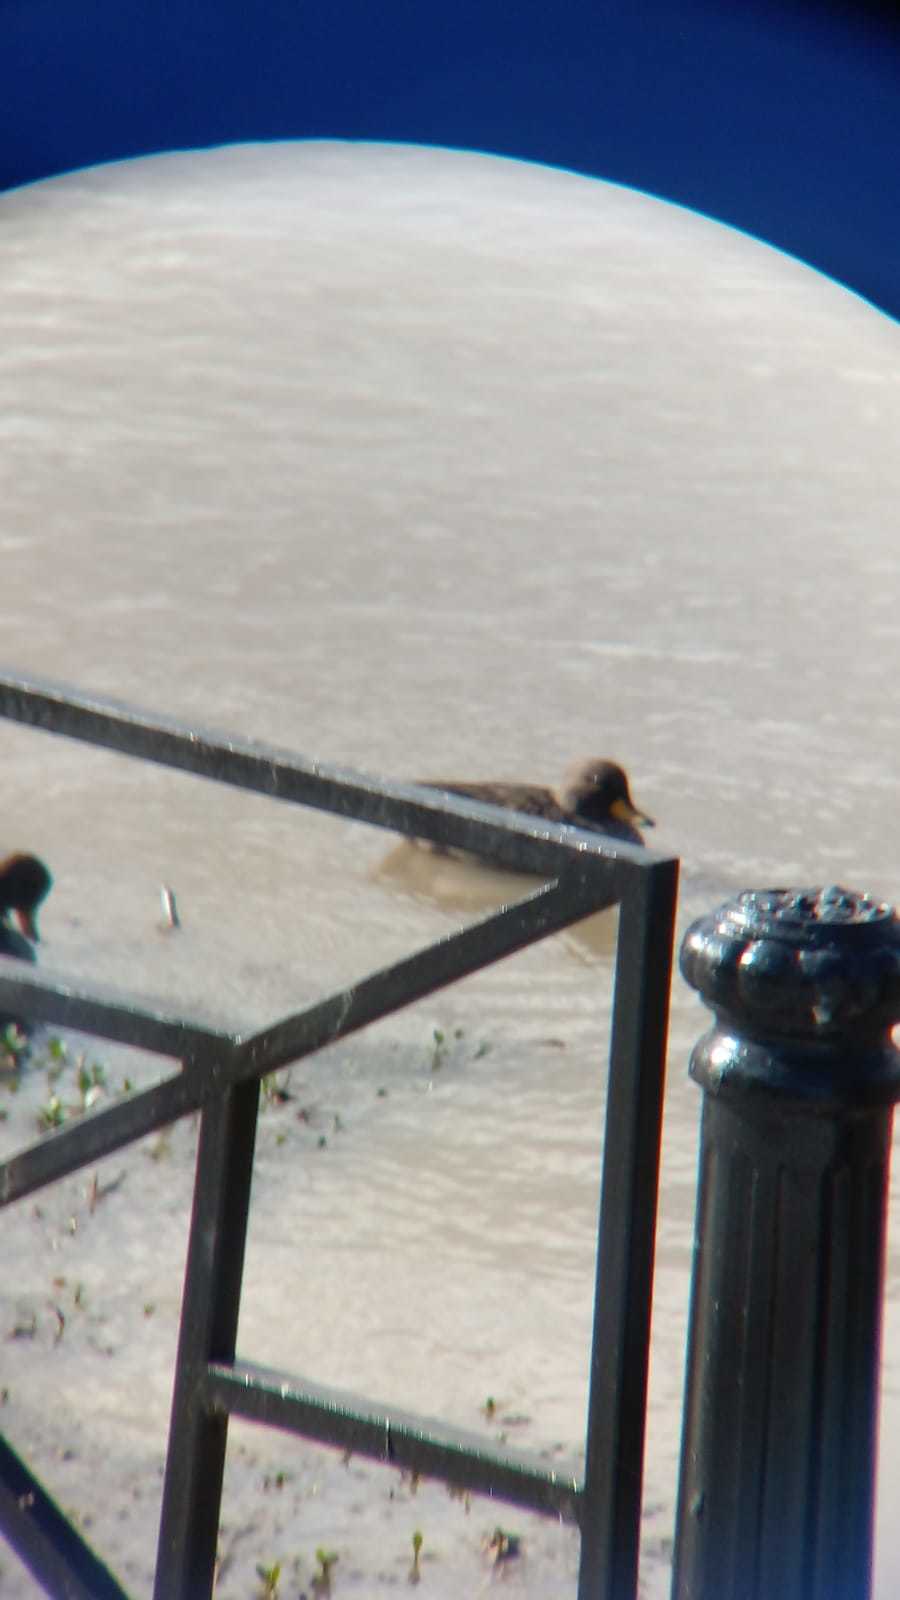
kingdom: Animalia
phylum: Chordata
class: Aves
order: Anseriformes
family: Anatidae
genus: Anas
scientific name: Anas flavirostris
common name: Yellow-billed teal
